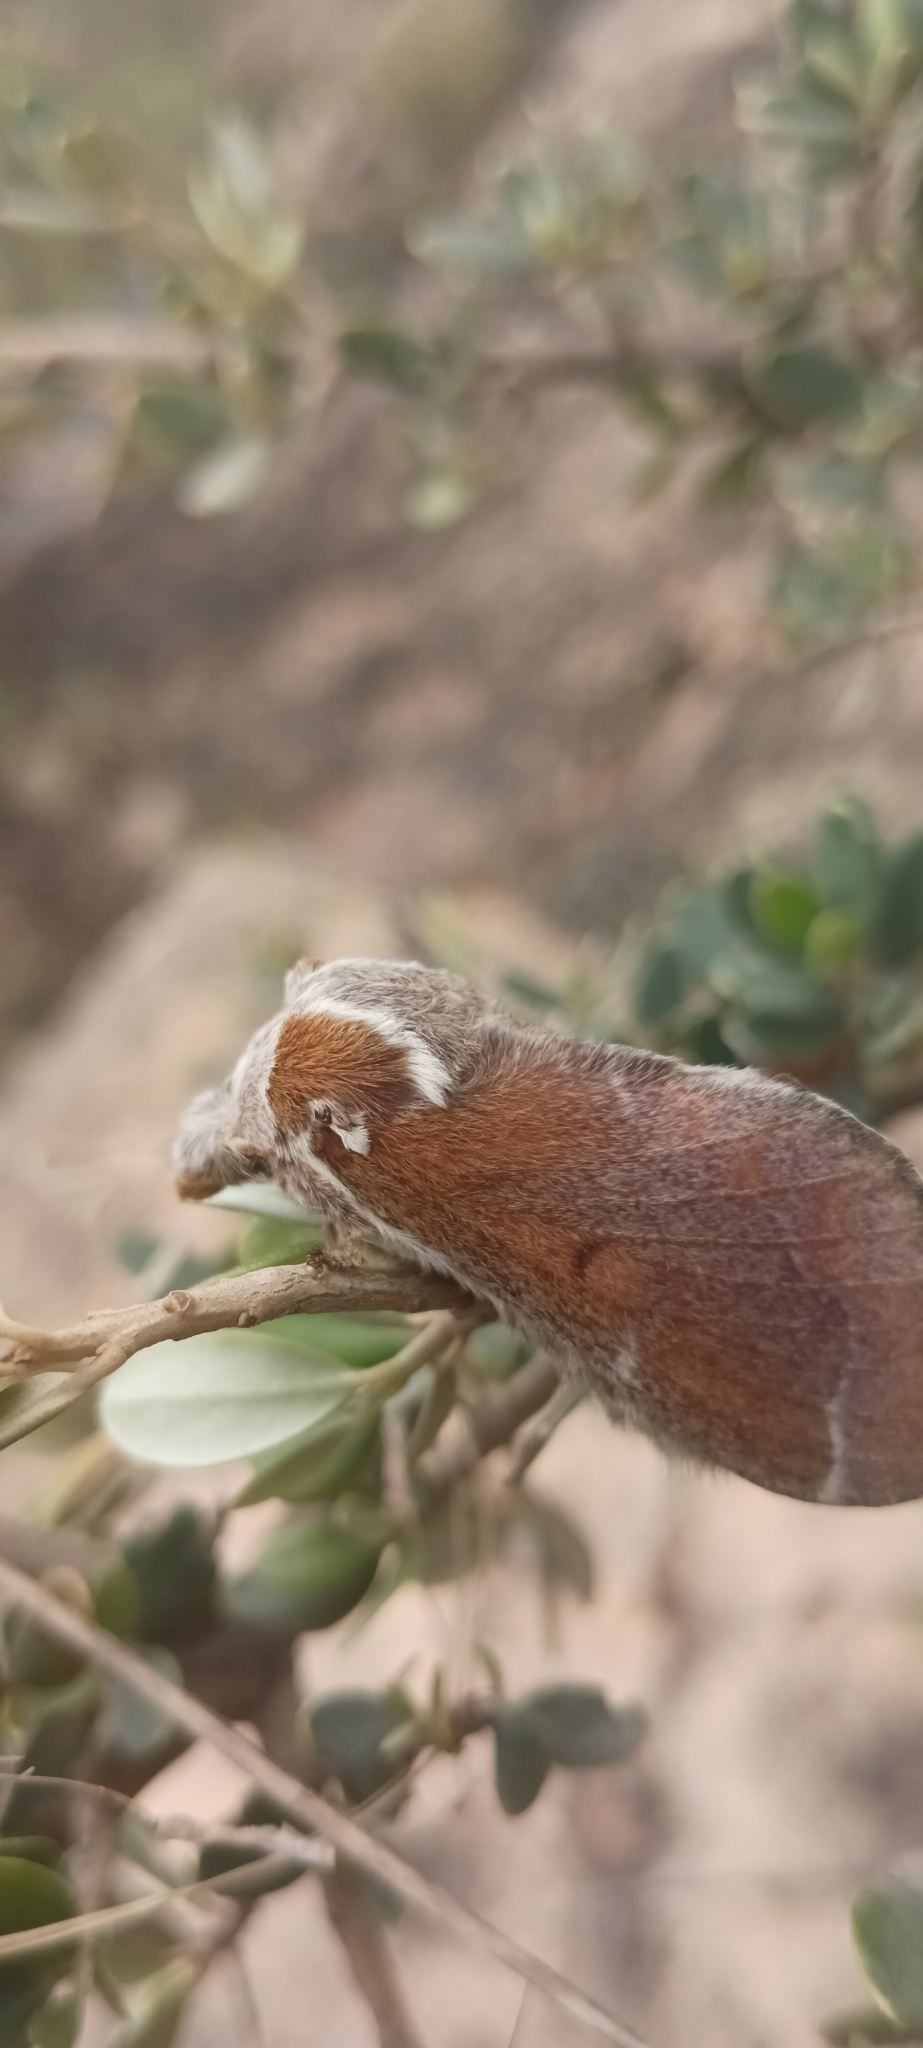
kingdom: Animalia
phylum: Arthropoda
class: Insecta
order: Lepidoptera
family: Lasiocampidae
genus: Streblote
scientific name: Streblote panda
